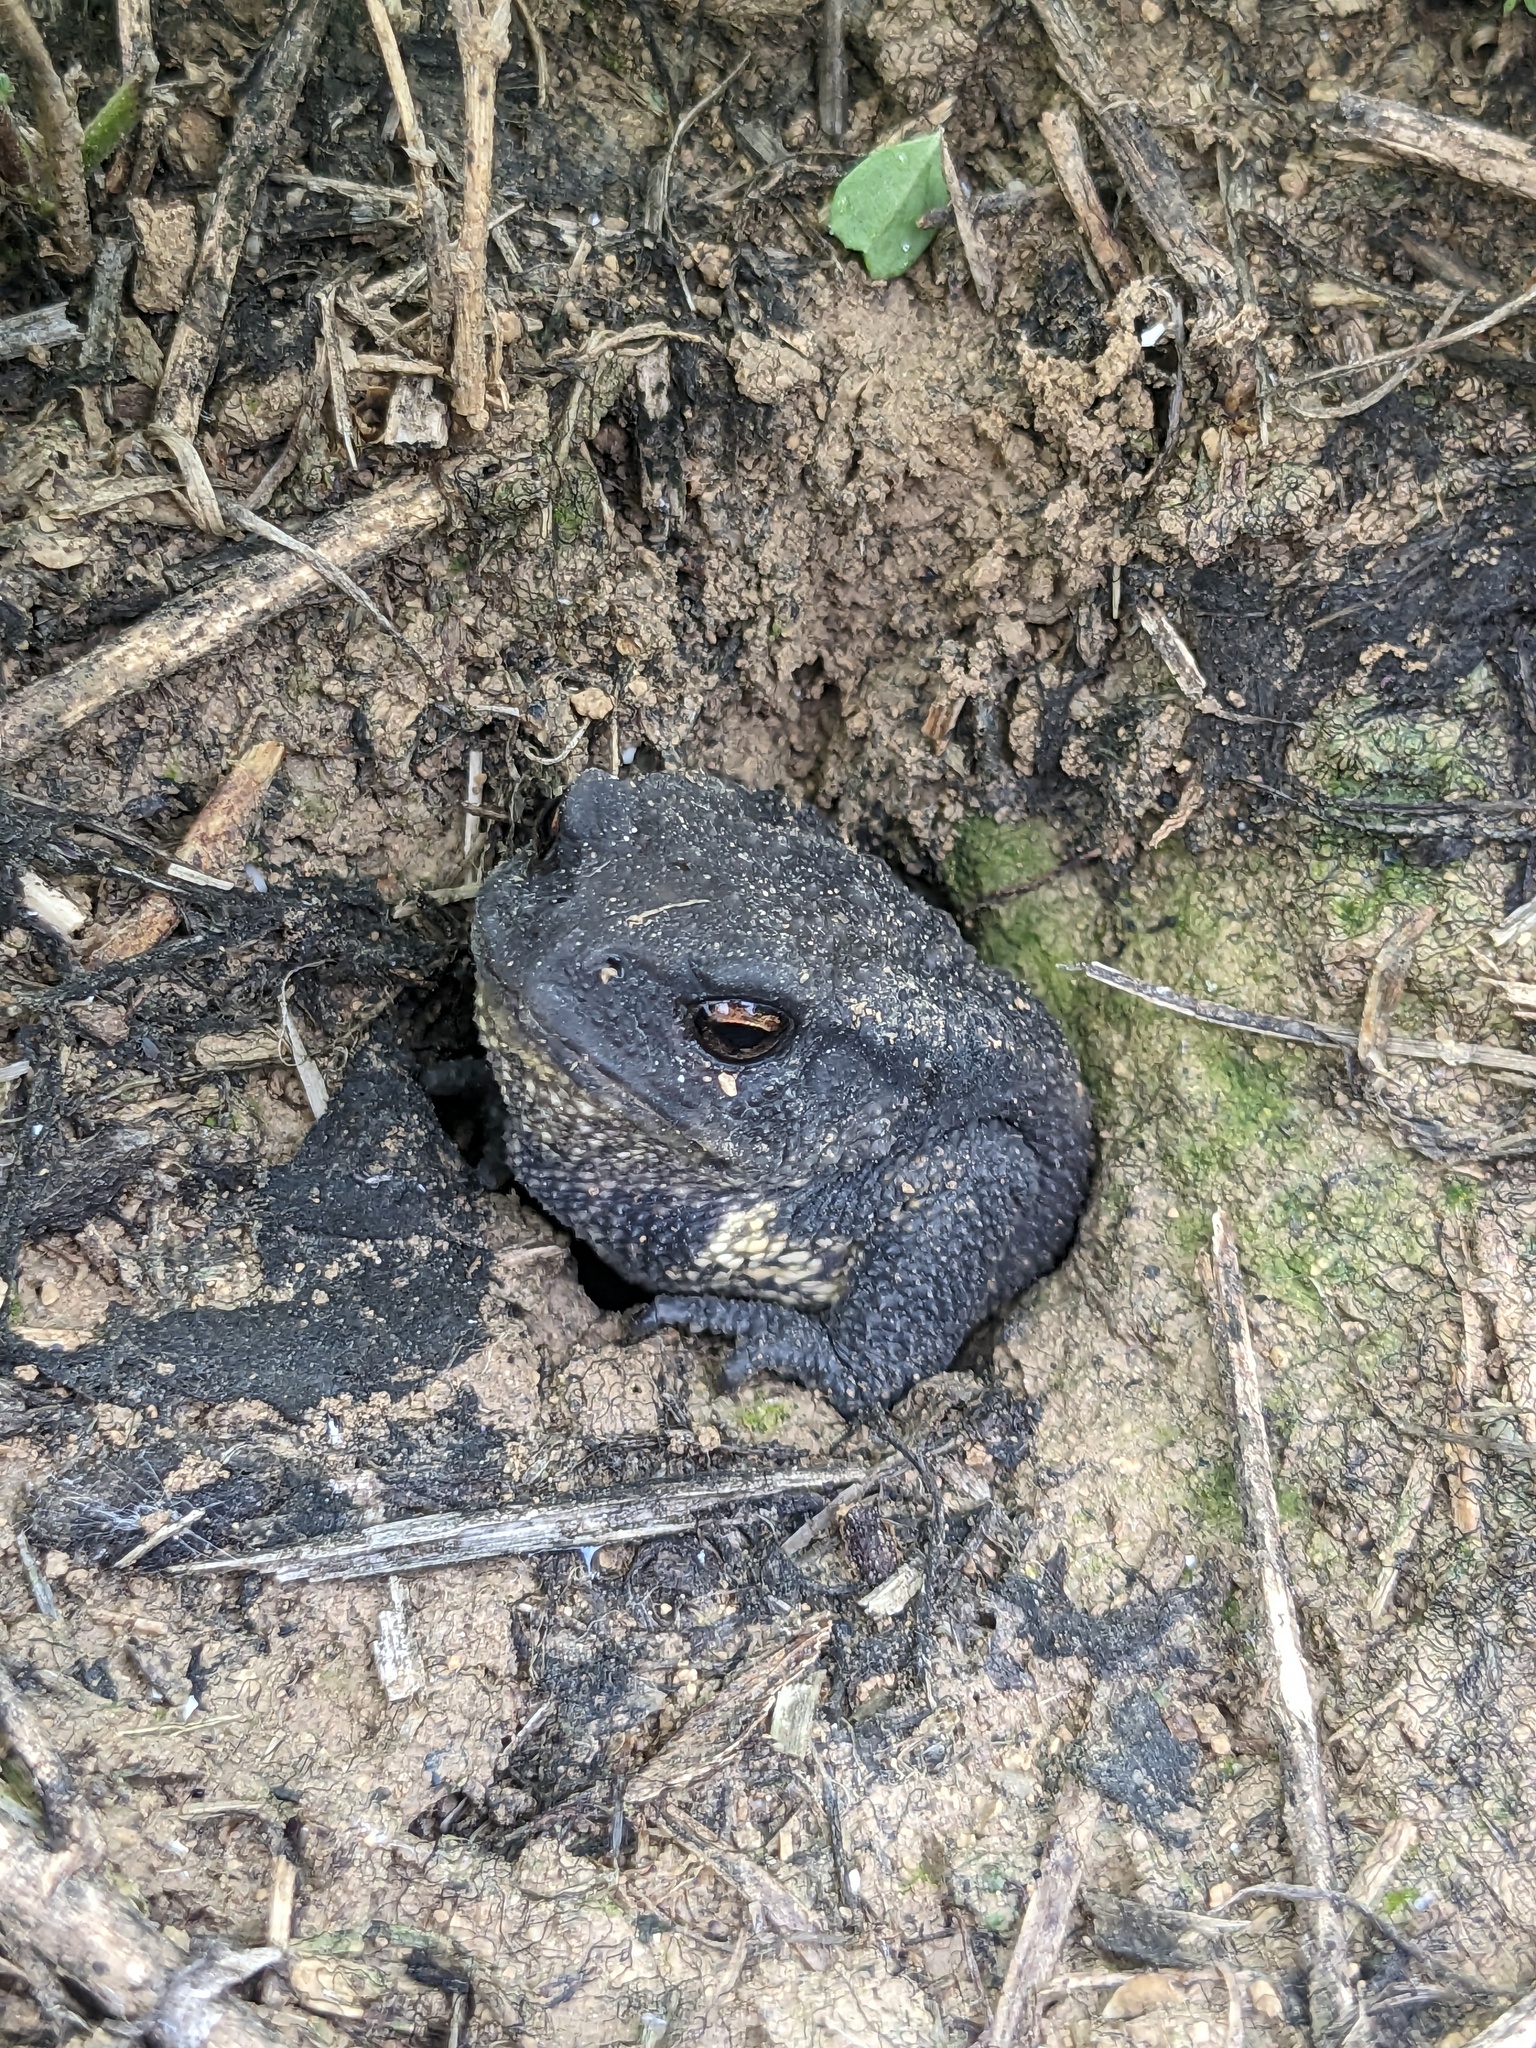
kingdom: Animalia
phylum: Chordata
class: Amphibia
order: Anura
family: Bufonidae
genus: Bufo
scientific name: Bufo spinosus
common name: Western common toad
